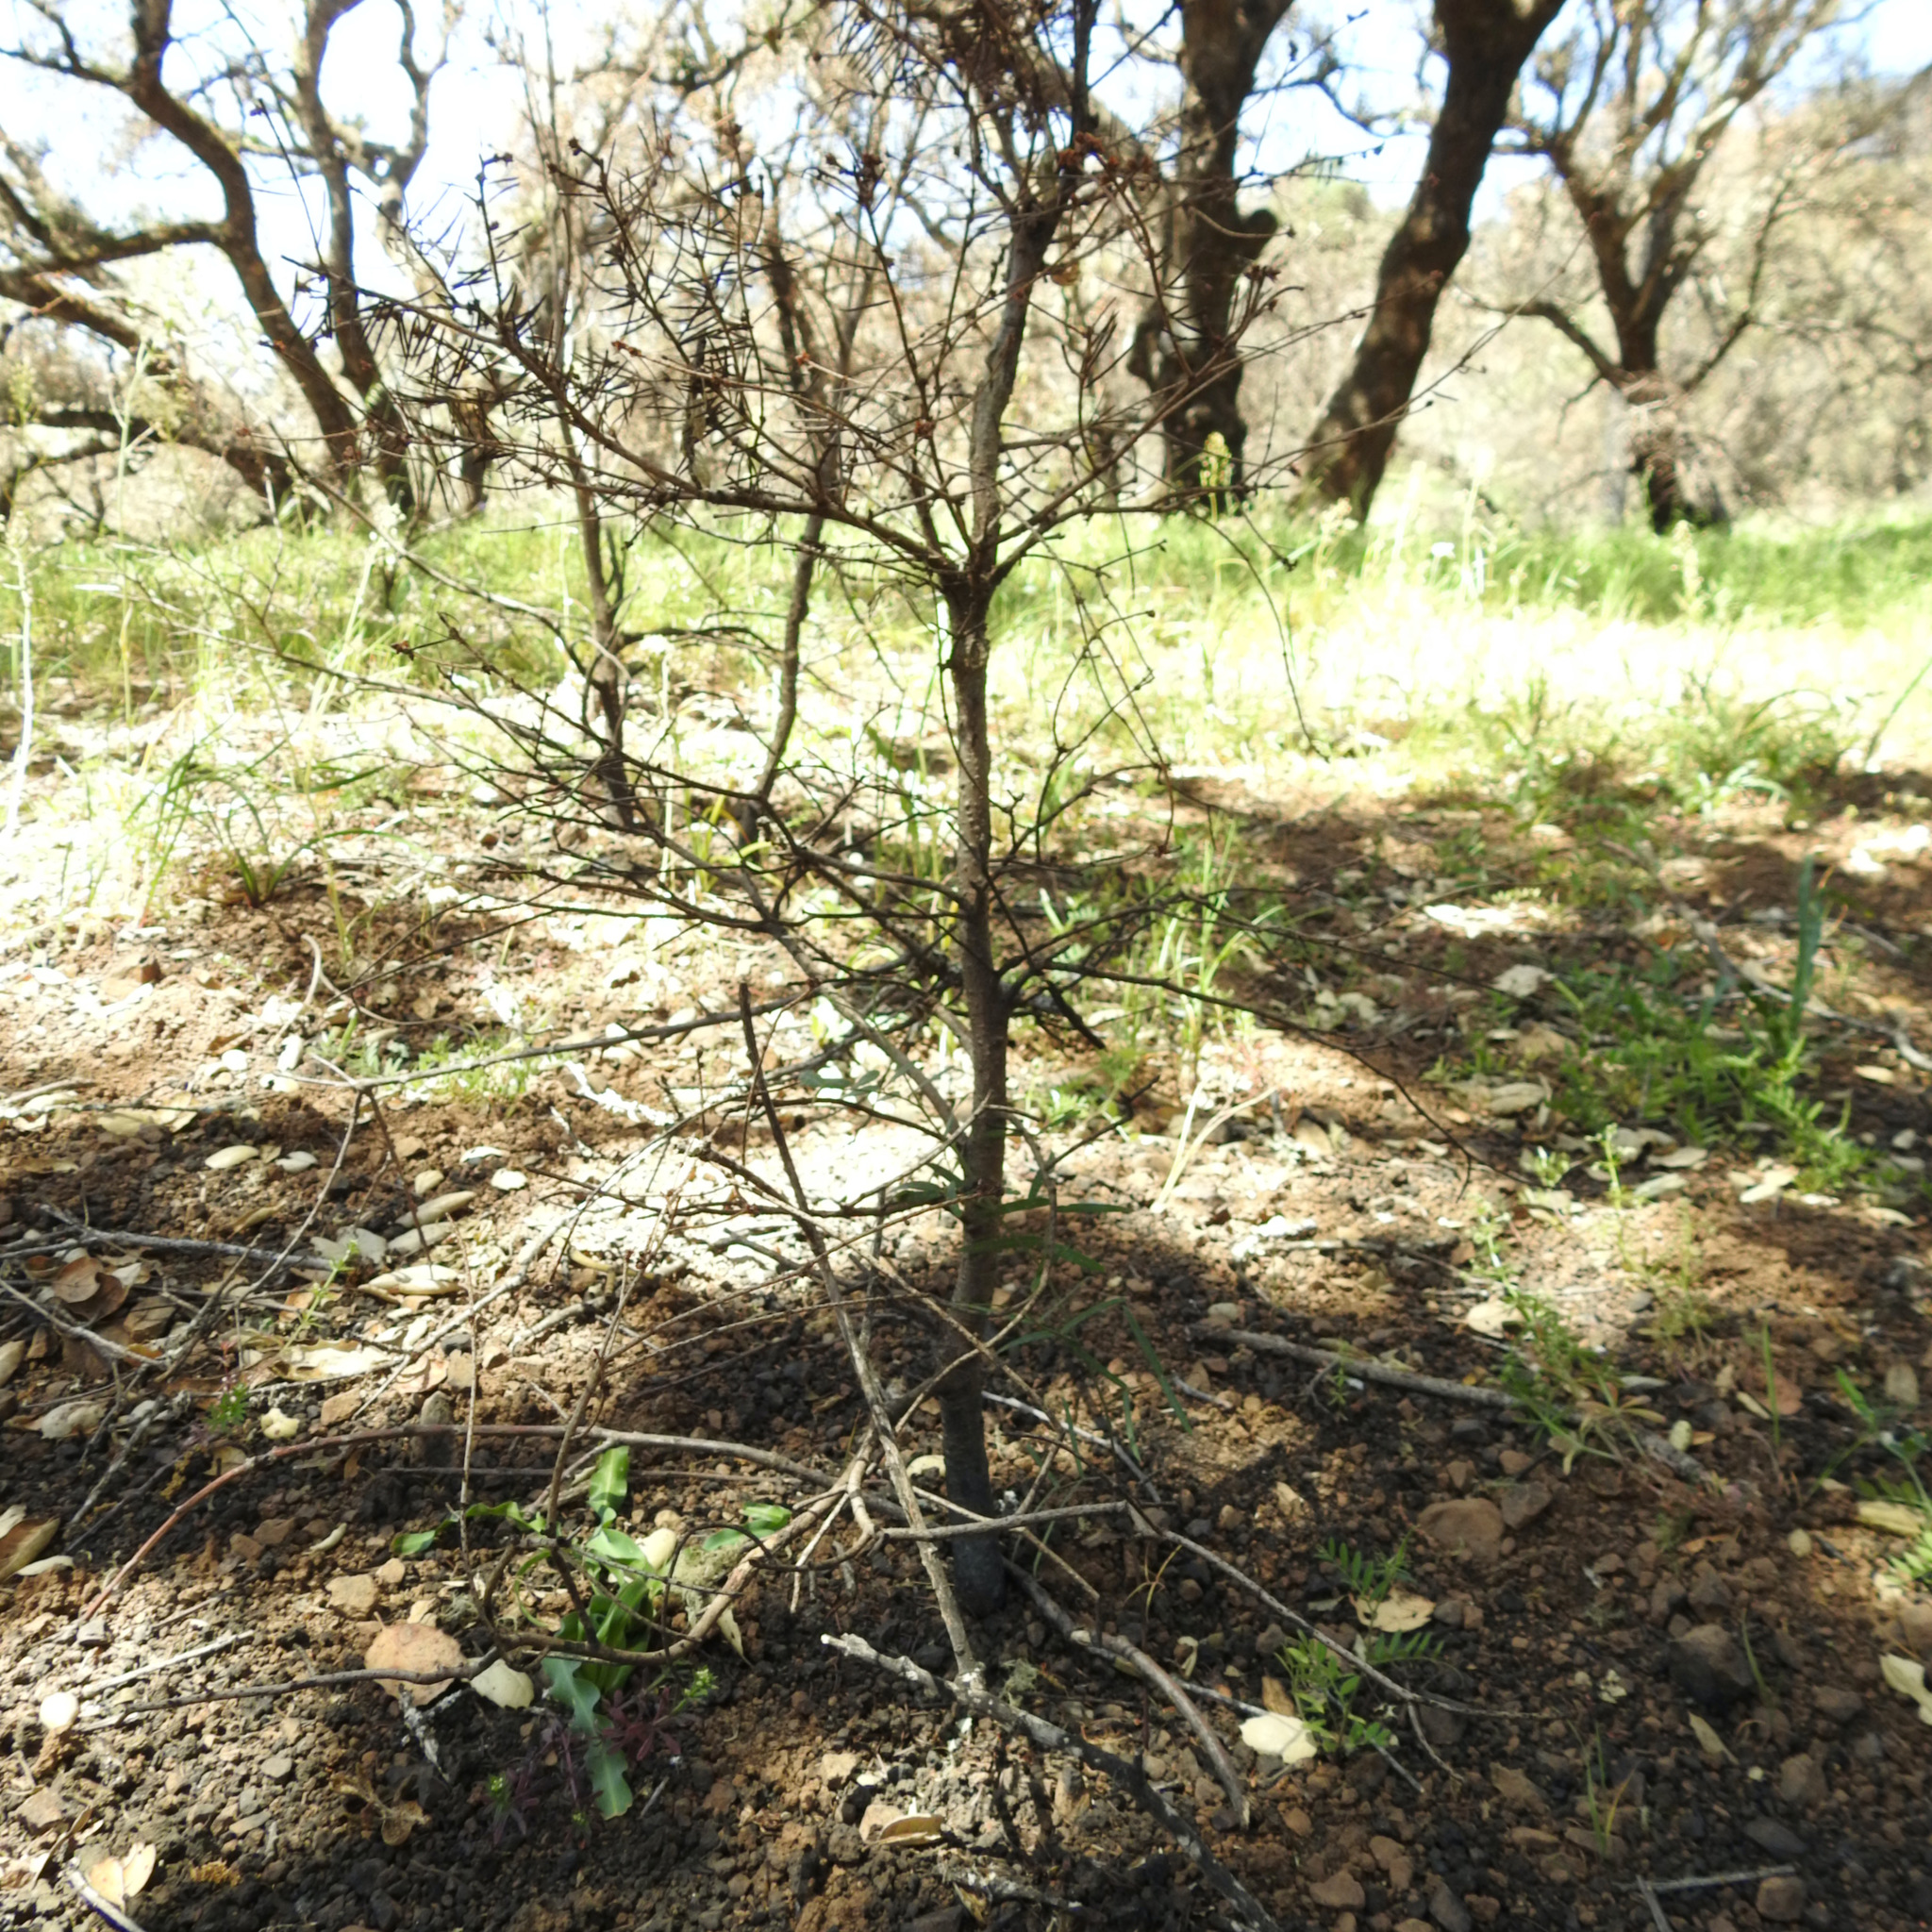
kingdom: Plantae
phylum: Tracheophyta
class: Pinopsida
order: Pinales
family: Pinaceae
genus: Pseudotsuga
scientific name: Pseudotsuga menziesii
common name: Douglas fir
